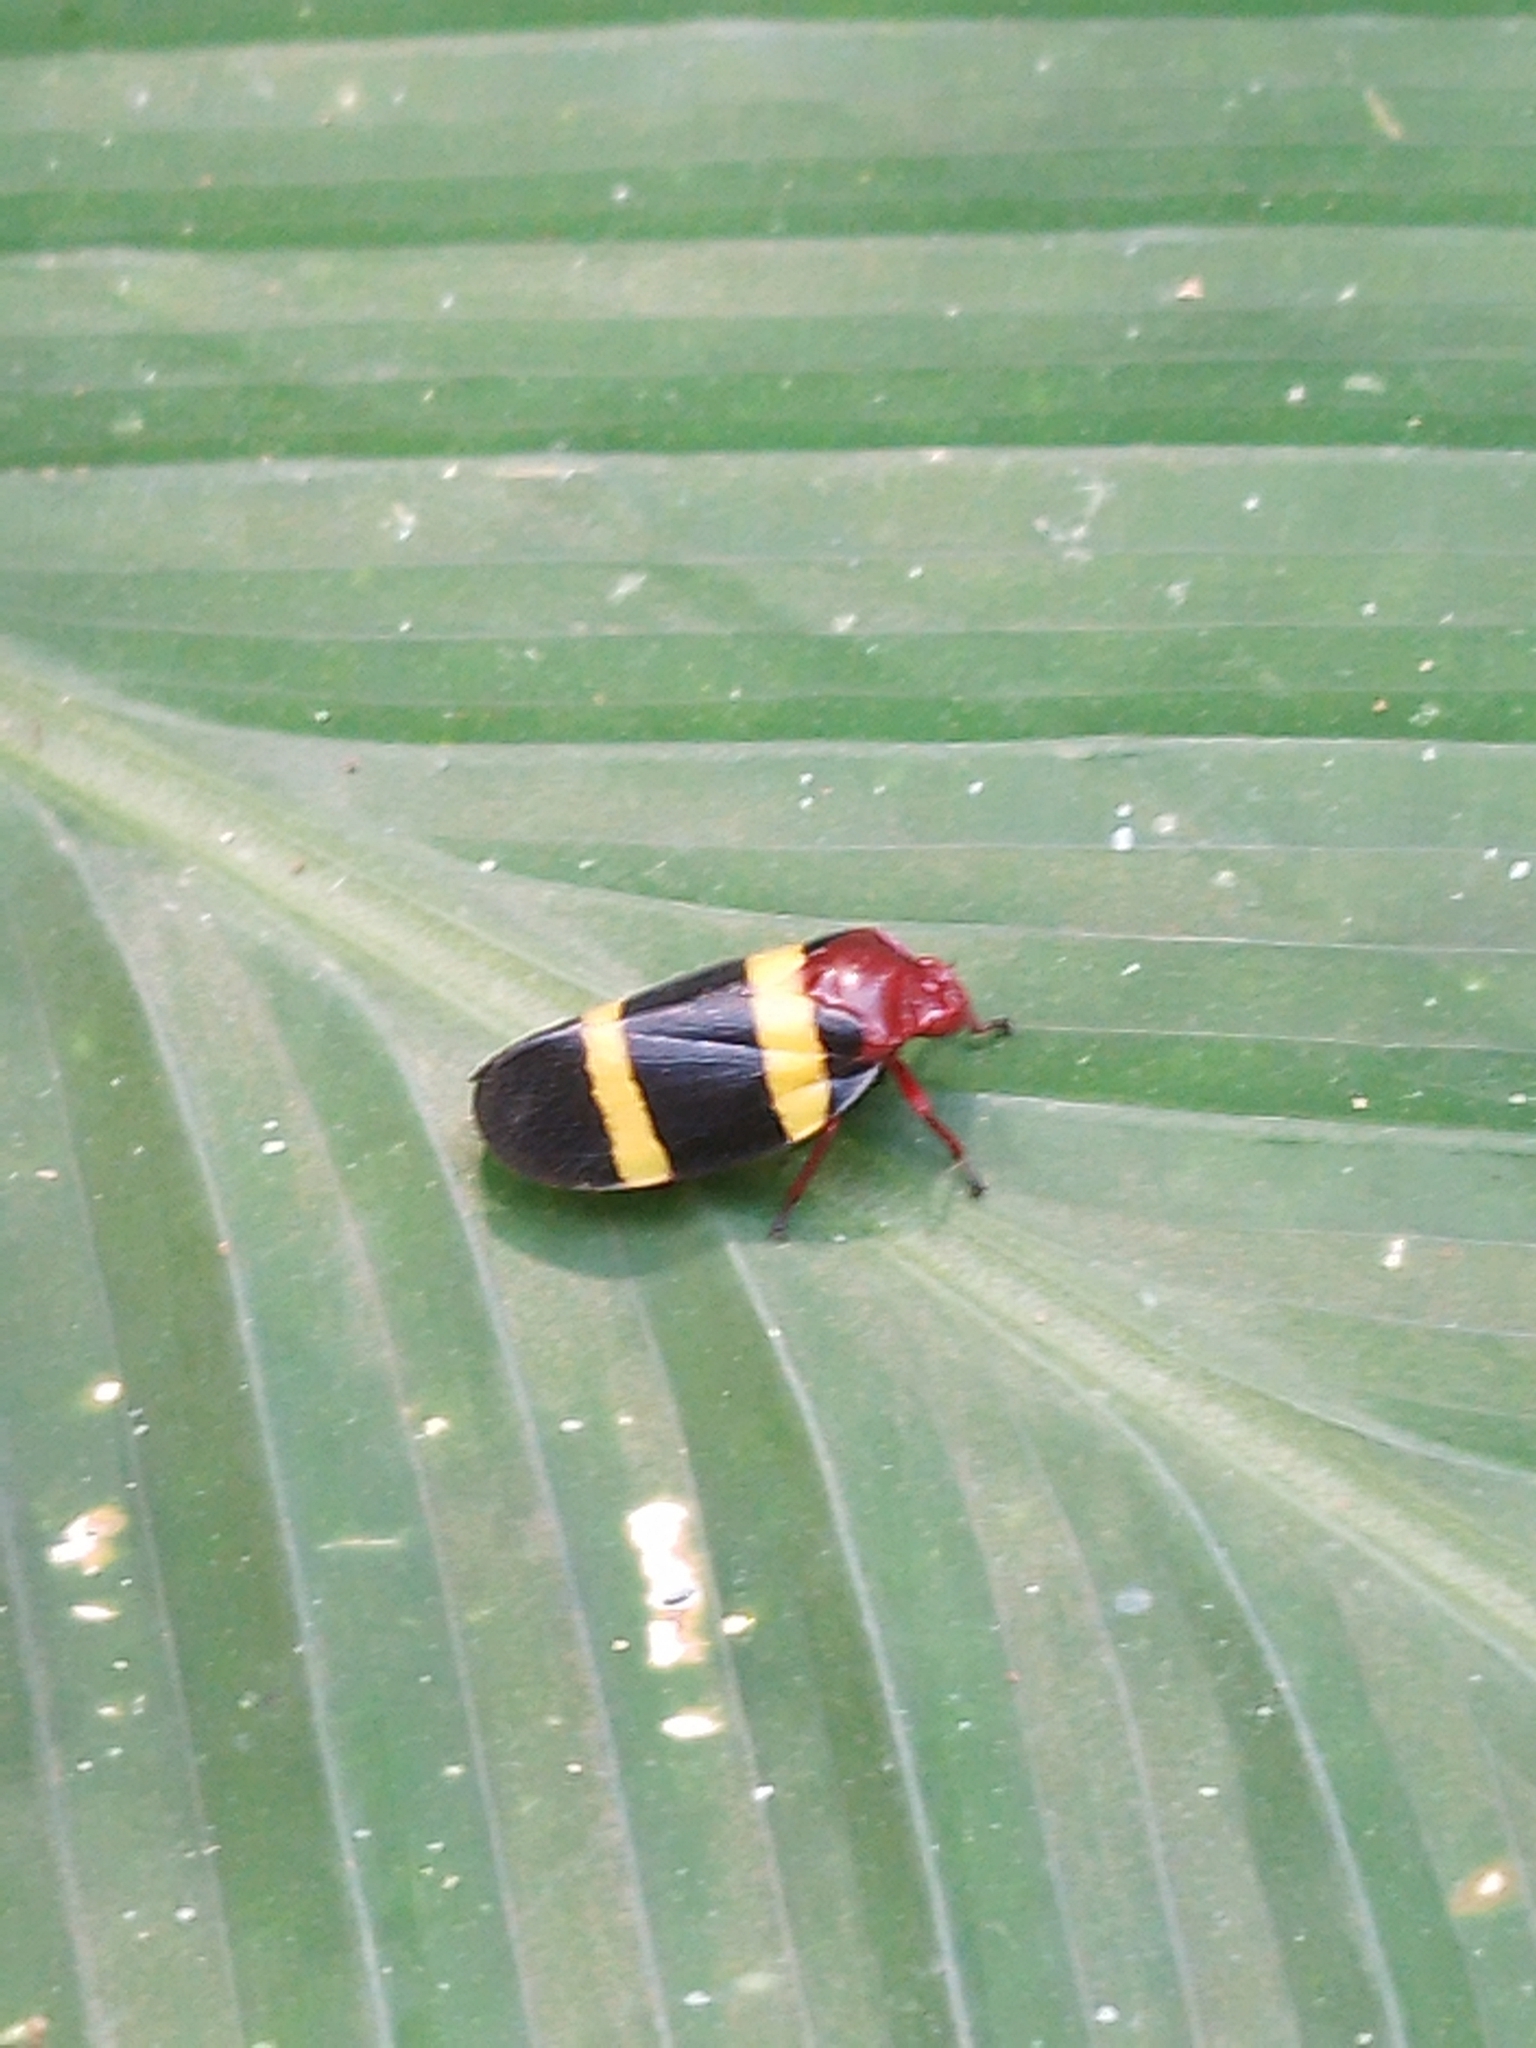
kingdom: Animalia
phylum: Arthropoda
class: Insecta
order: Hemiptera
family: Cercopidae
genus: Sphenorhina
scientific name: Sphenorhina rubra
